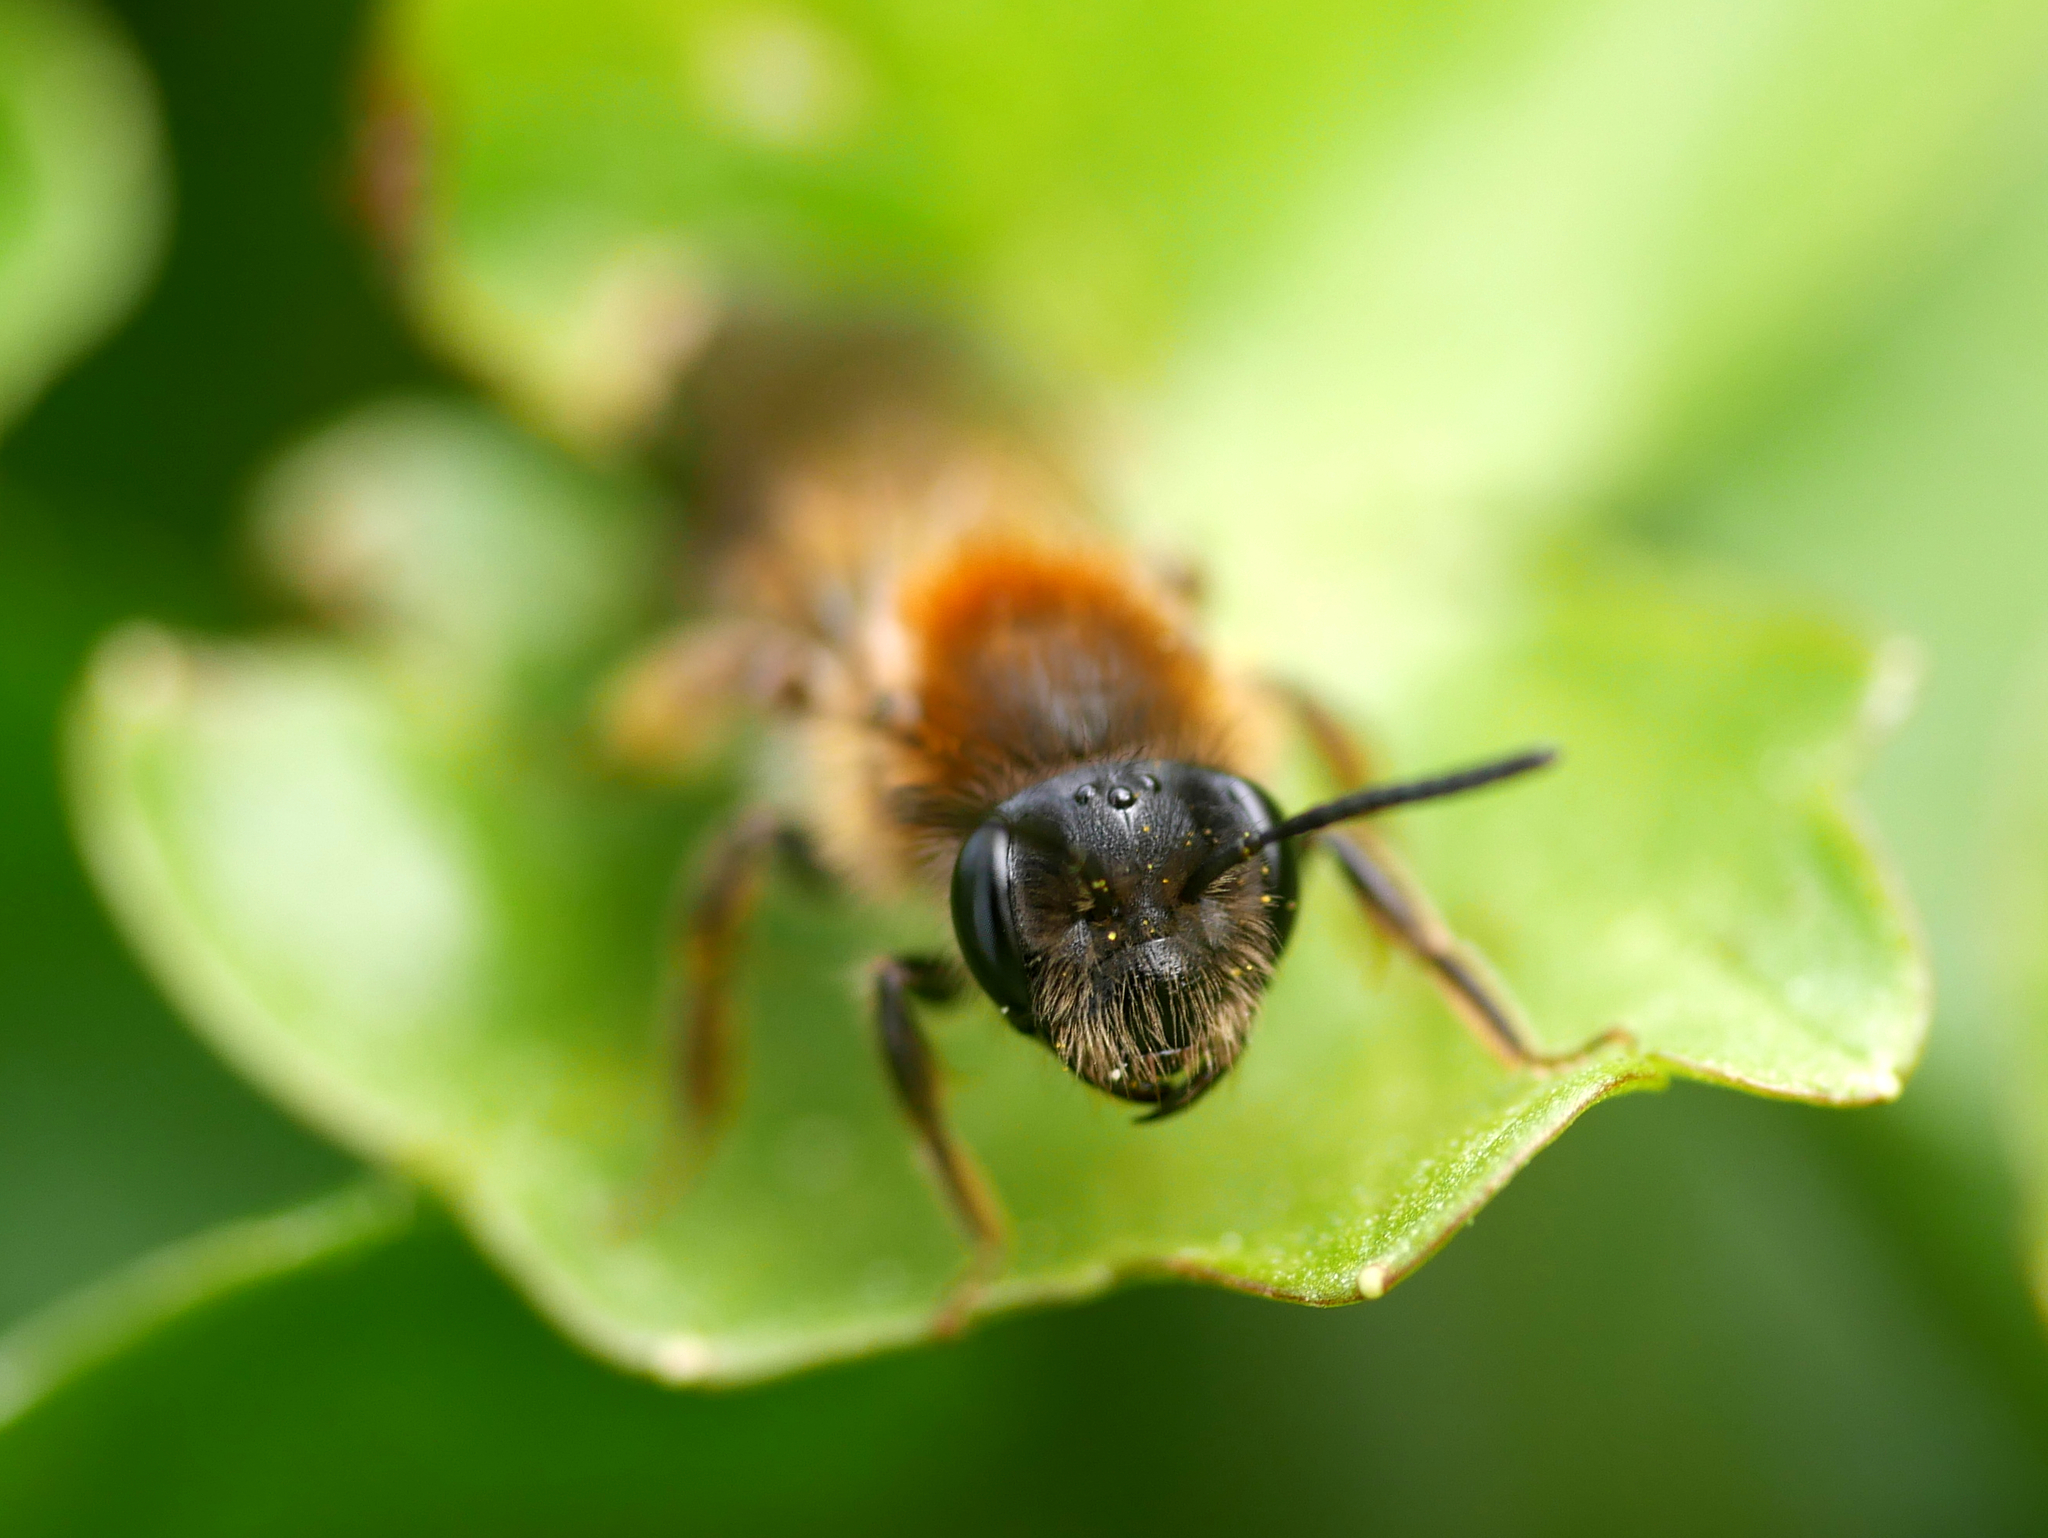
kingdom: Animalia
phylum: Arthropoda
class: Insecta
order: Hymenoptera
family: Andrenidae
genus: Andrena
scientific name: Andrena helvola
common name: Coppice mining bee
